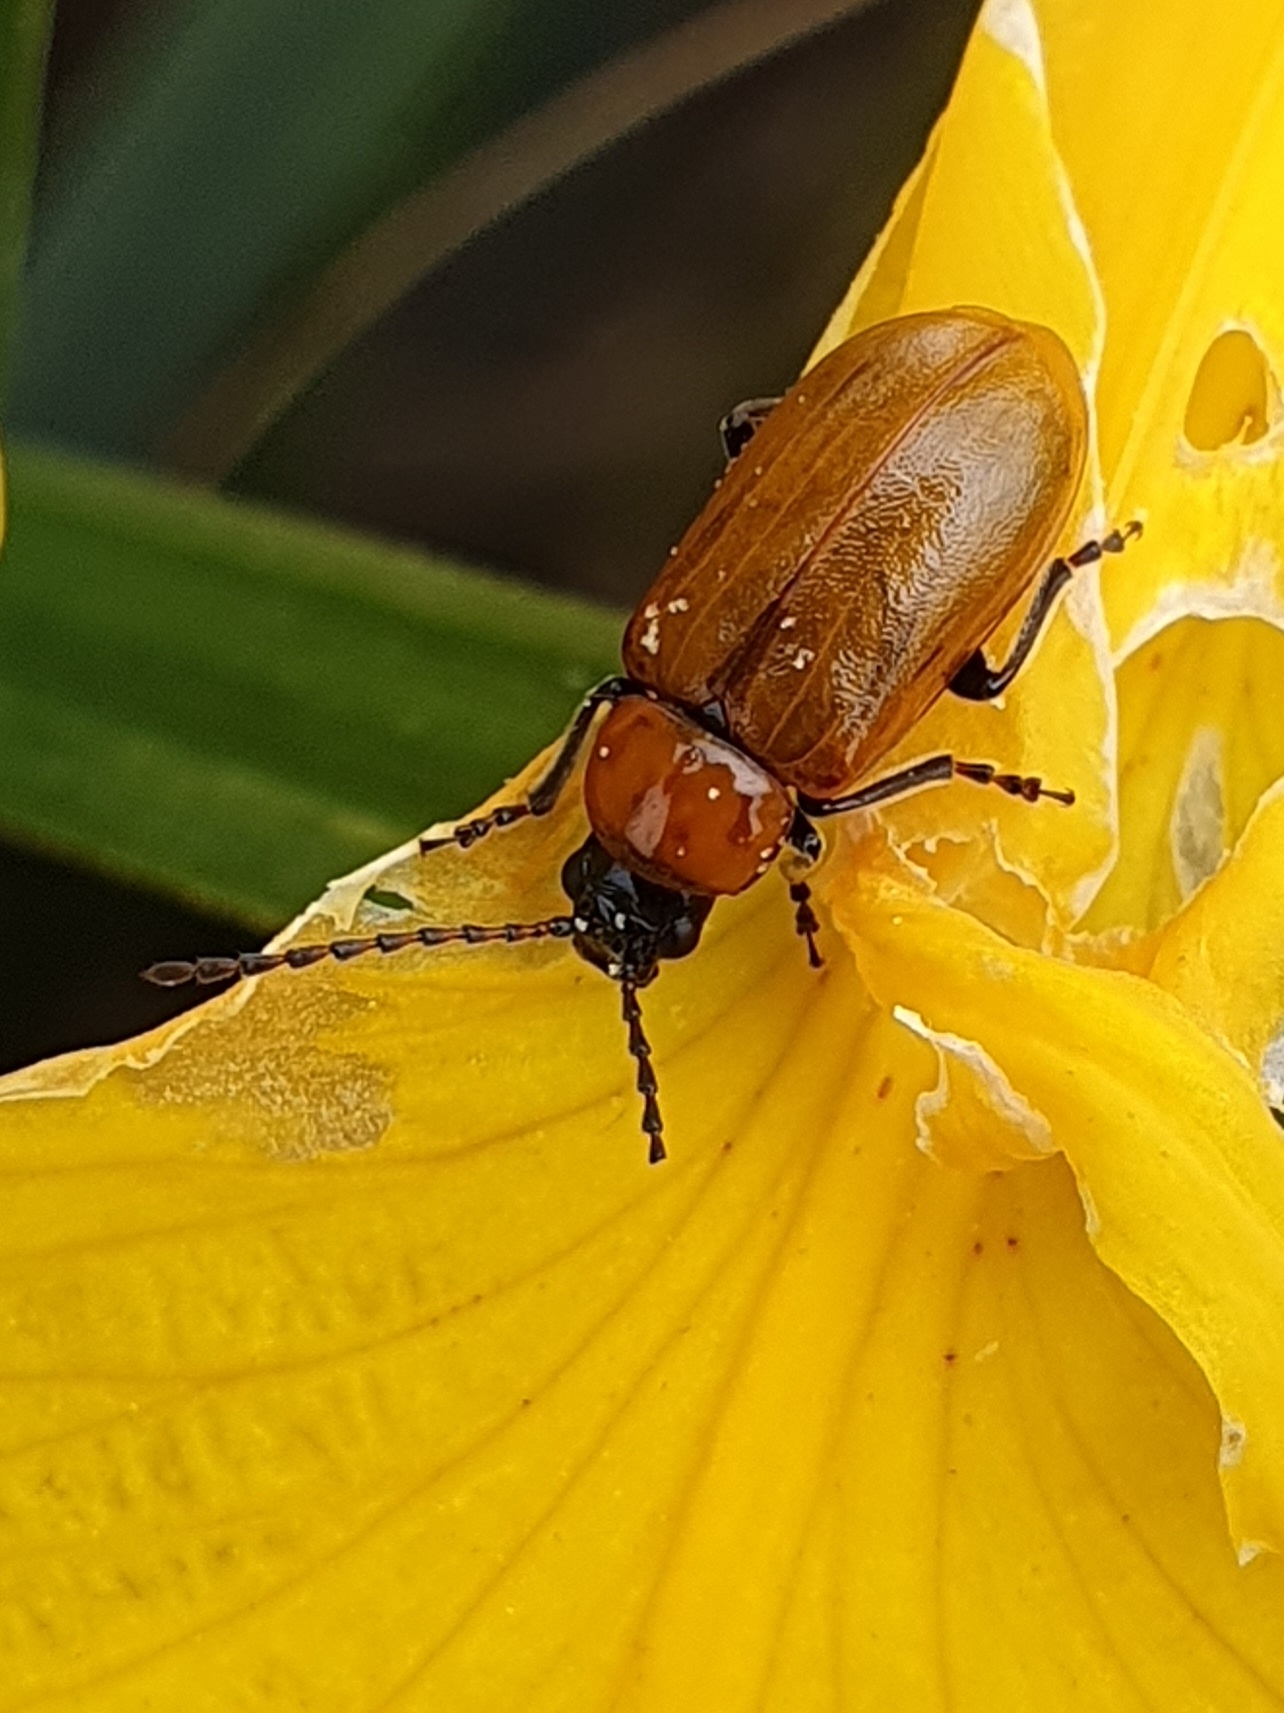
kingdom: Animalia
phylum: Arthropoda
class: Insecta
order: Coleoptera
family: Chrysomelidae
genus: Exosoma
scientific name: Exosoma lusitanicum
